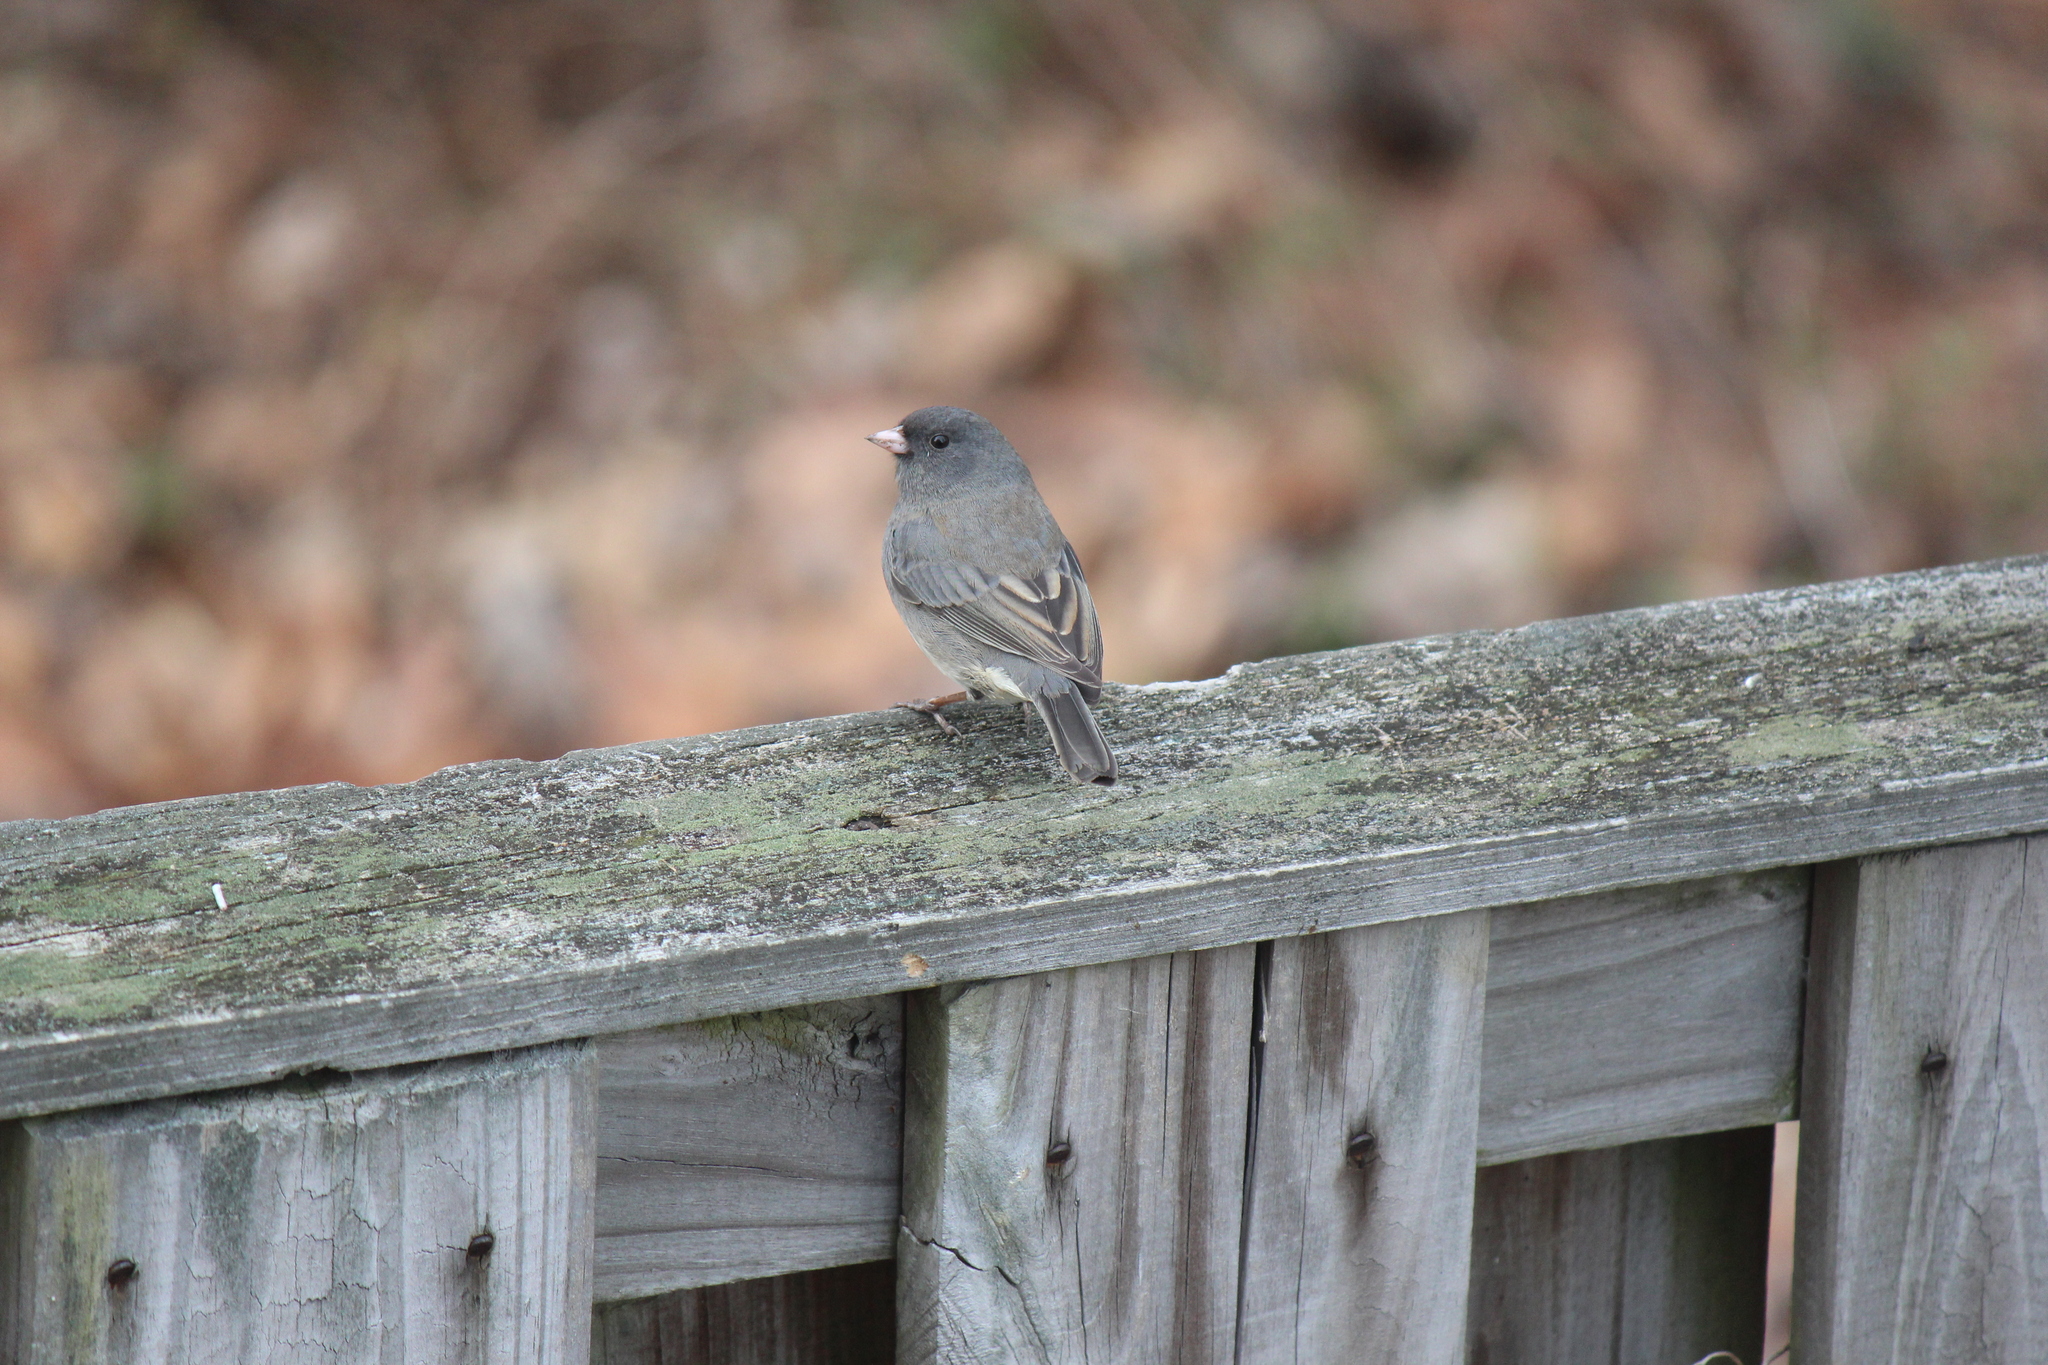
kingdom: Animalia
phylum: Chordata
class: Aves
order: Passeriformes
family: Passerellidae
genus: Junco
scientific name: Junco hyemalis
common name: Dark-eyed junco
